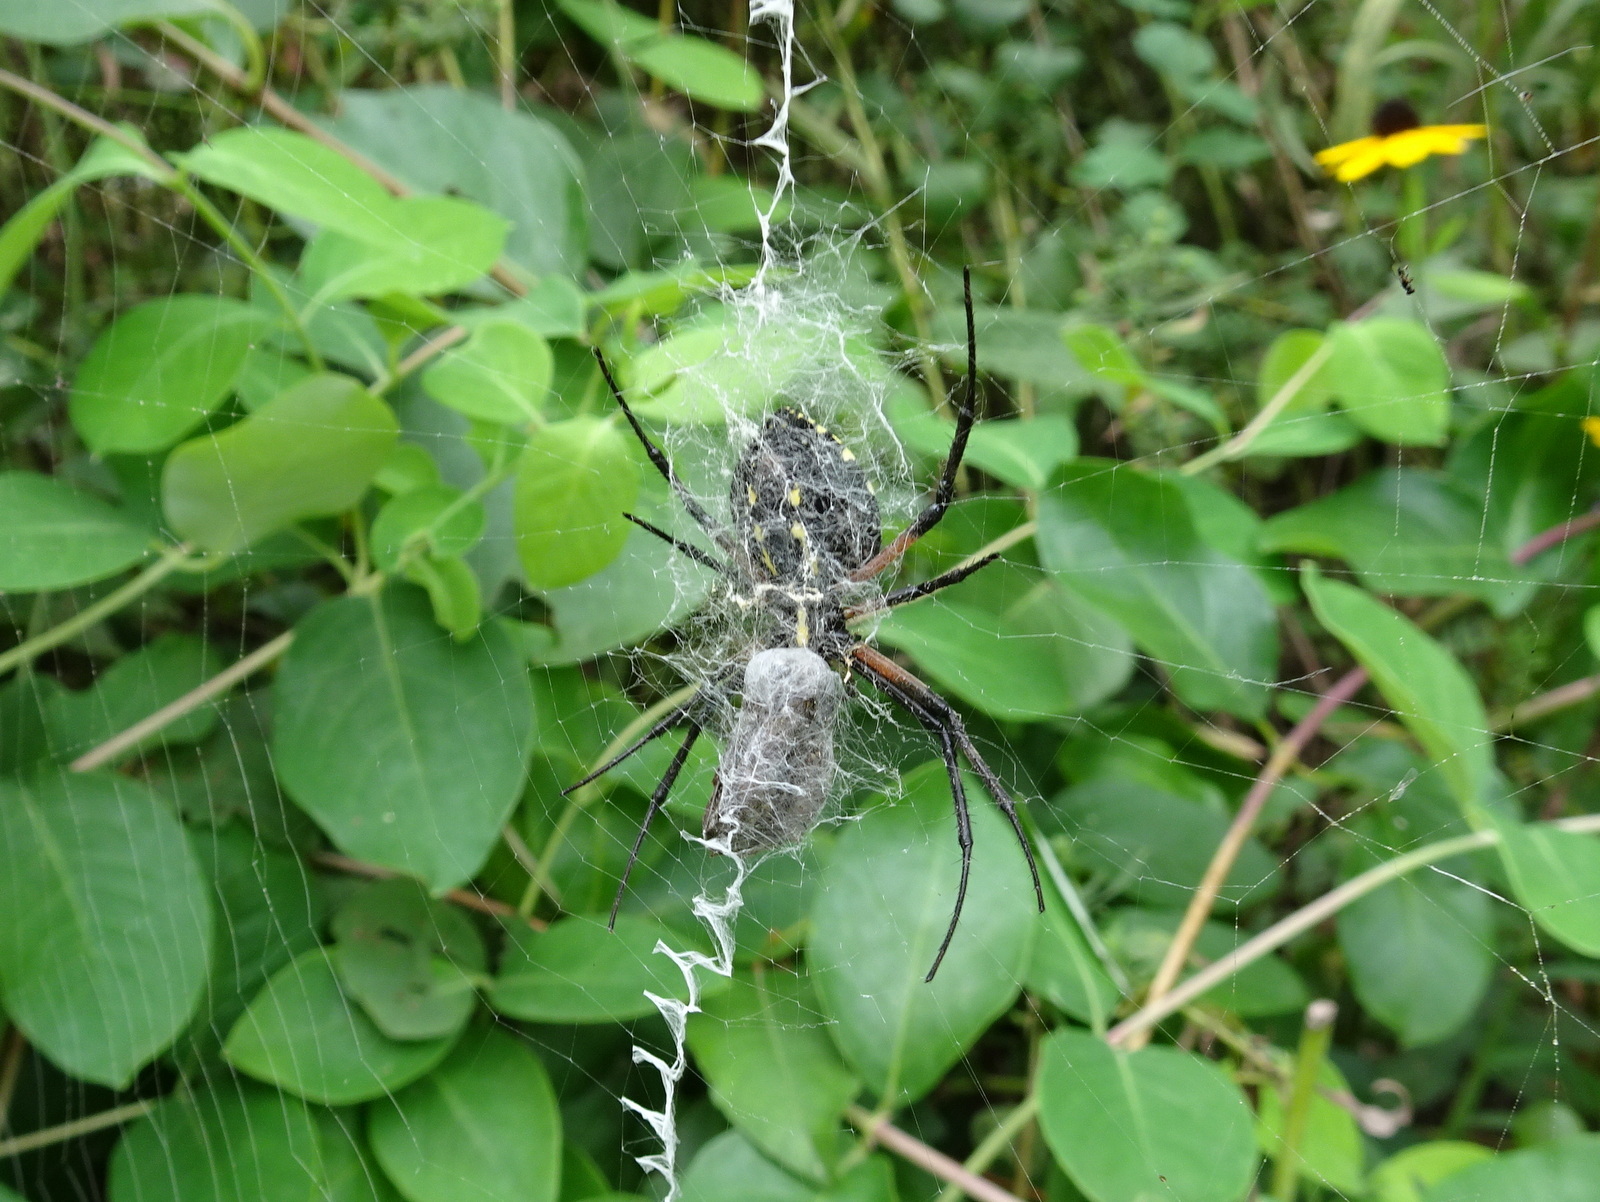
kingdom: Animalia
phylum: Arthropoda
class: Arachnida
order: Araneae
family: Araneidae
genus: Argiope
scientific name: Argiope aurantia
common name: Orb weavers
